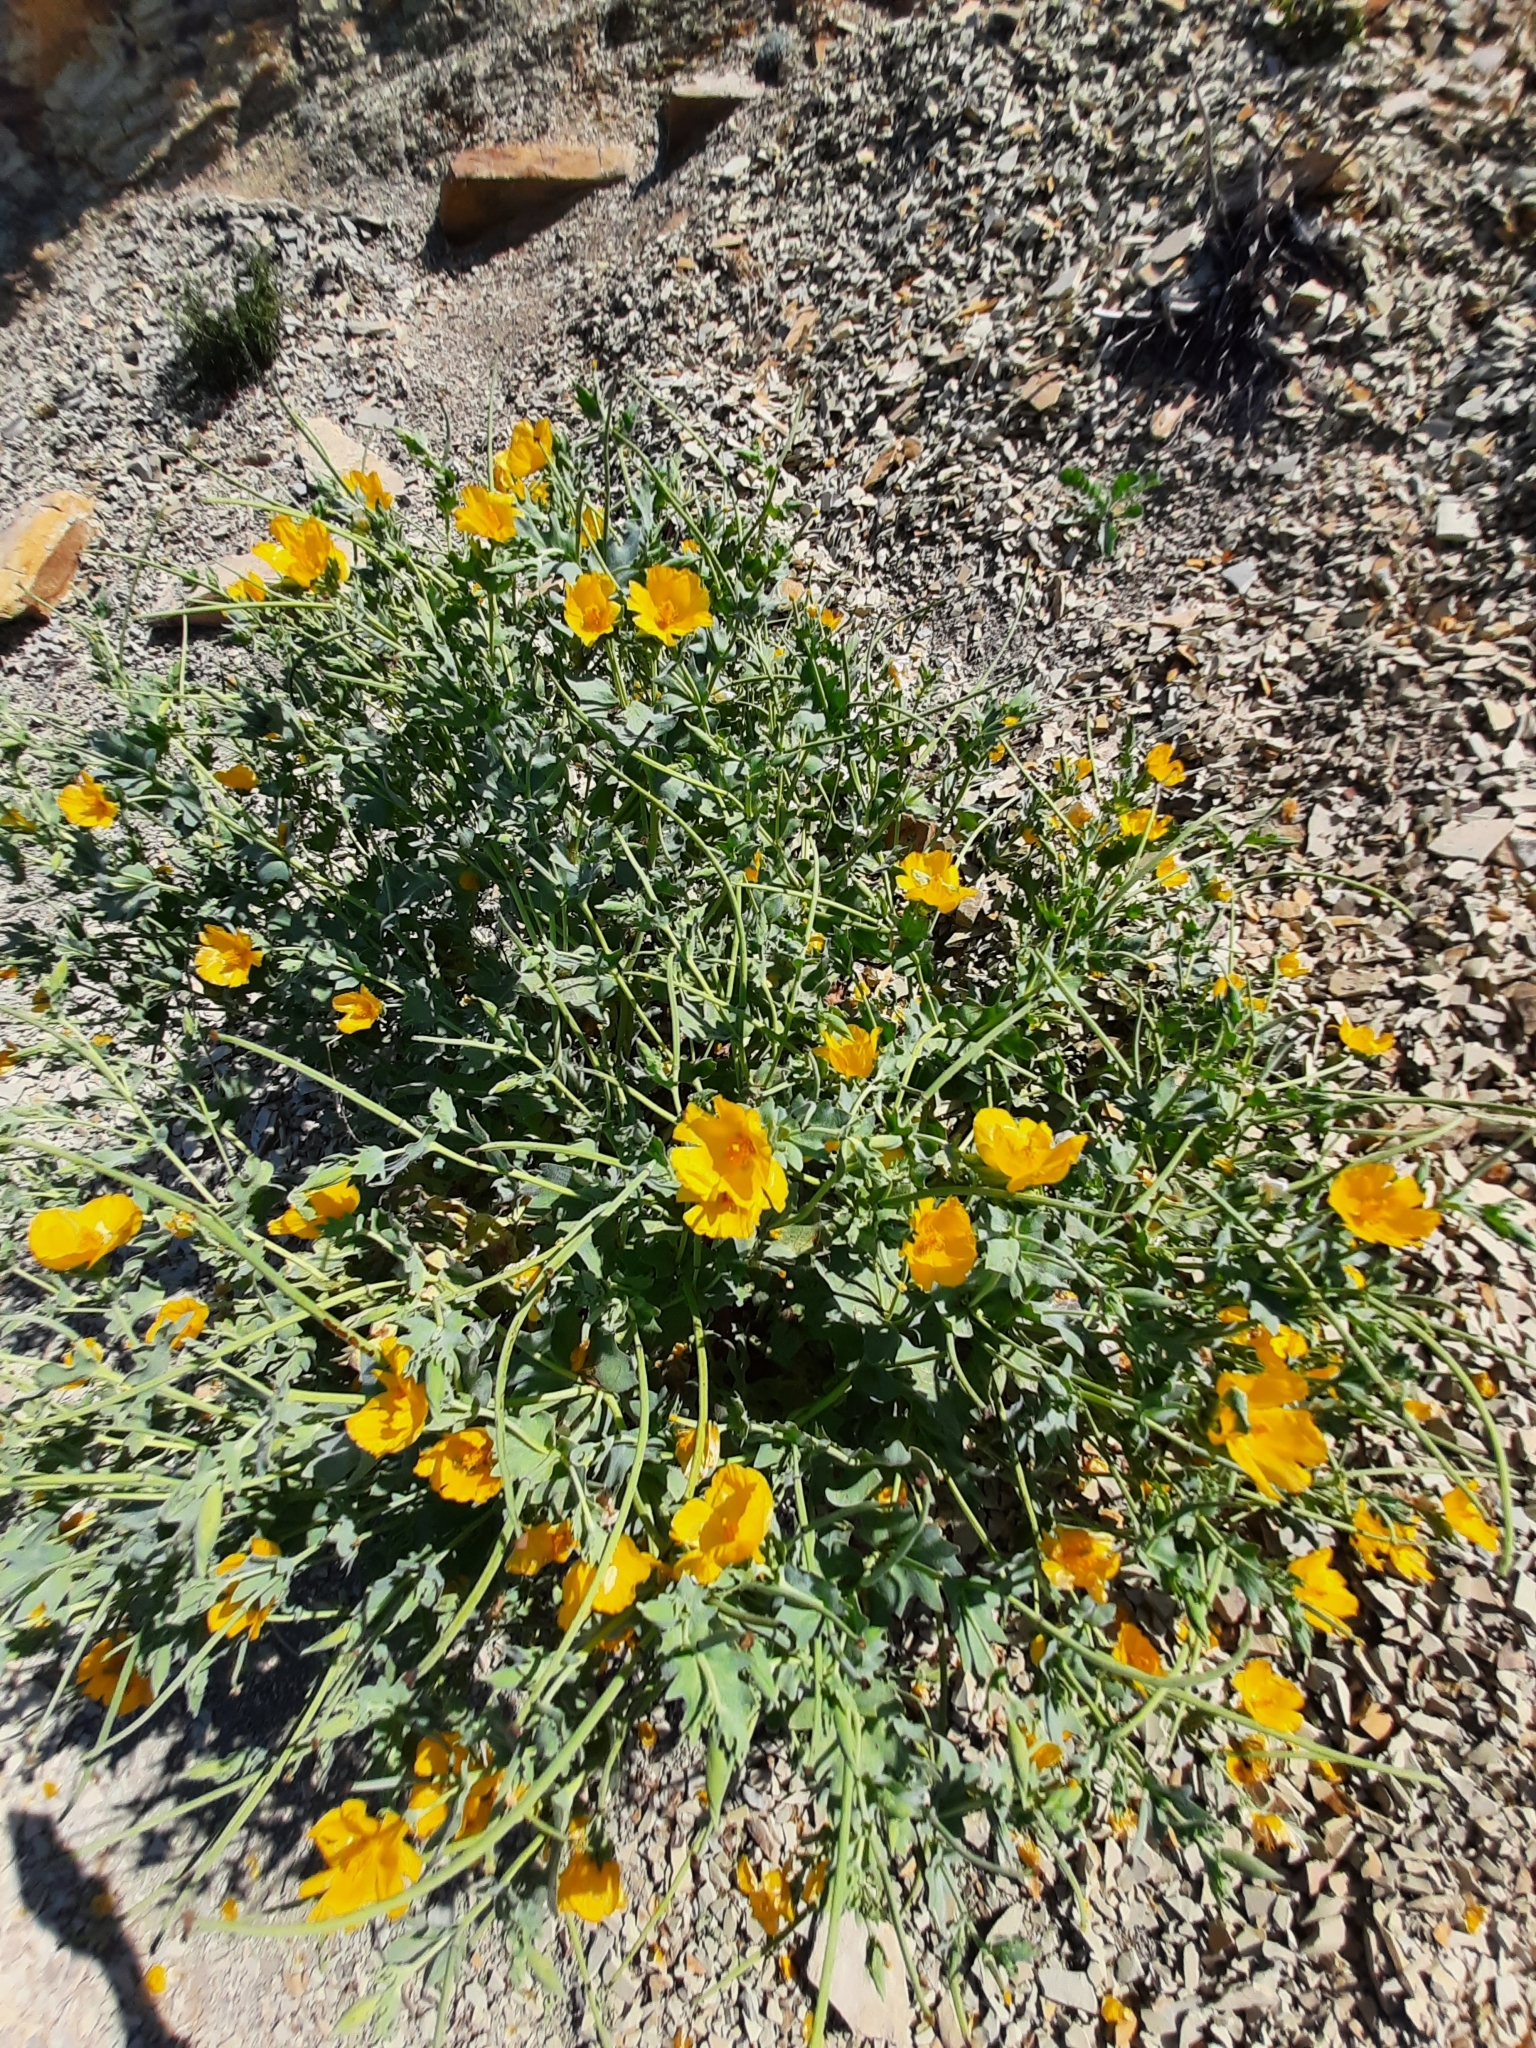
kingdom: Plantae
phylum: Tracheophyta
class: Magnoliopsida
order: Ranunculales
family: Papaveraceae
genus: Glaucium
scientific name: Glaucium flavum
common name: Yellow horned-poppy
